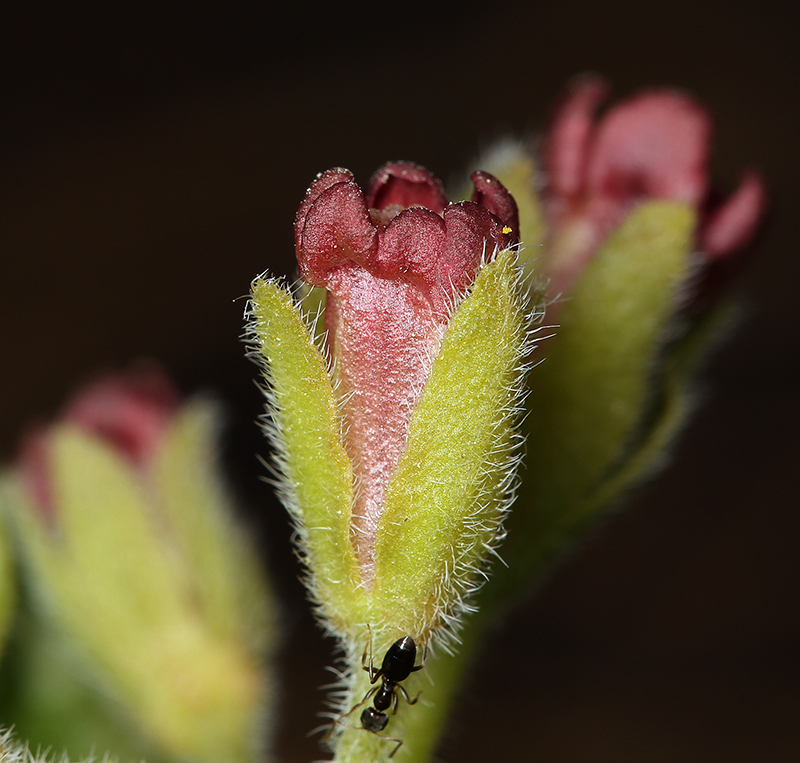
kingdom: Plantae
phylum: Tracheophyta
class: Magnoliopsida
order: Boraginales
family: Boraginaceae
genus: Andersonglossum
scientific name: Andersonglossum occidentale
